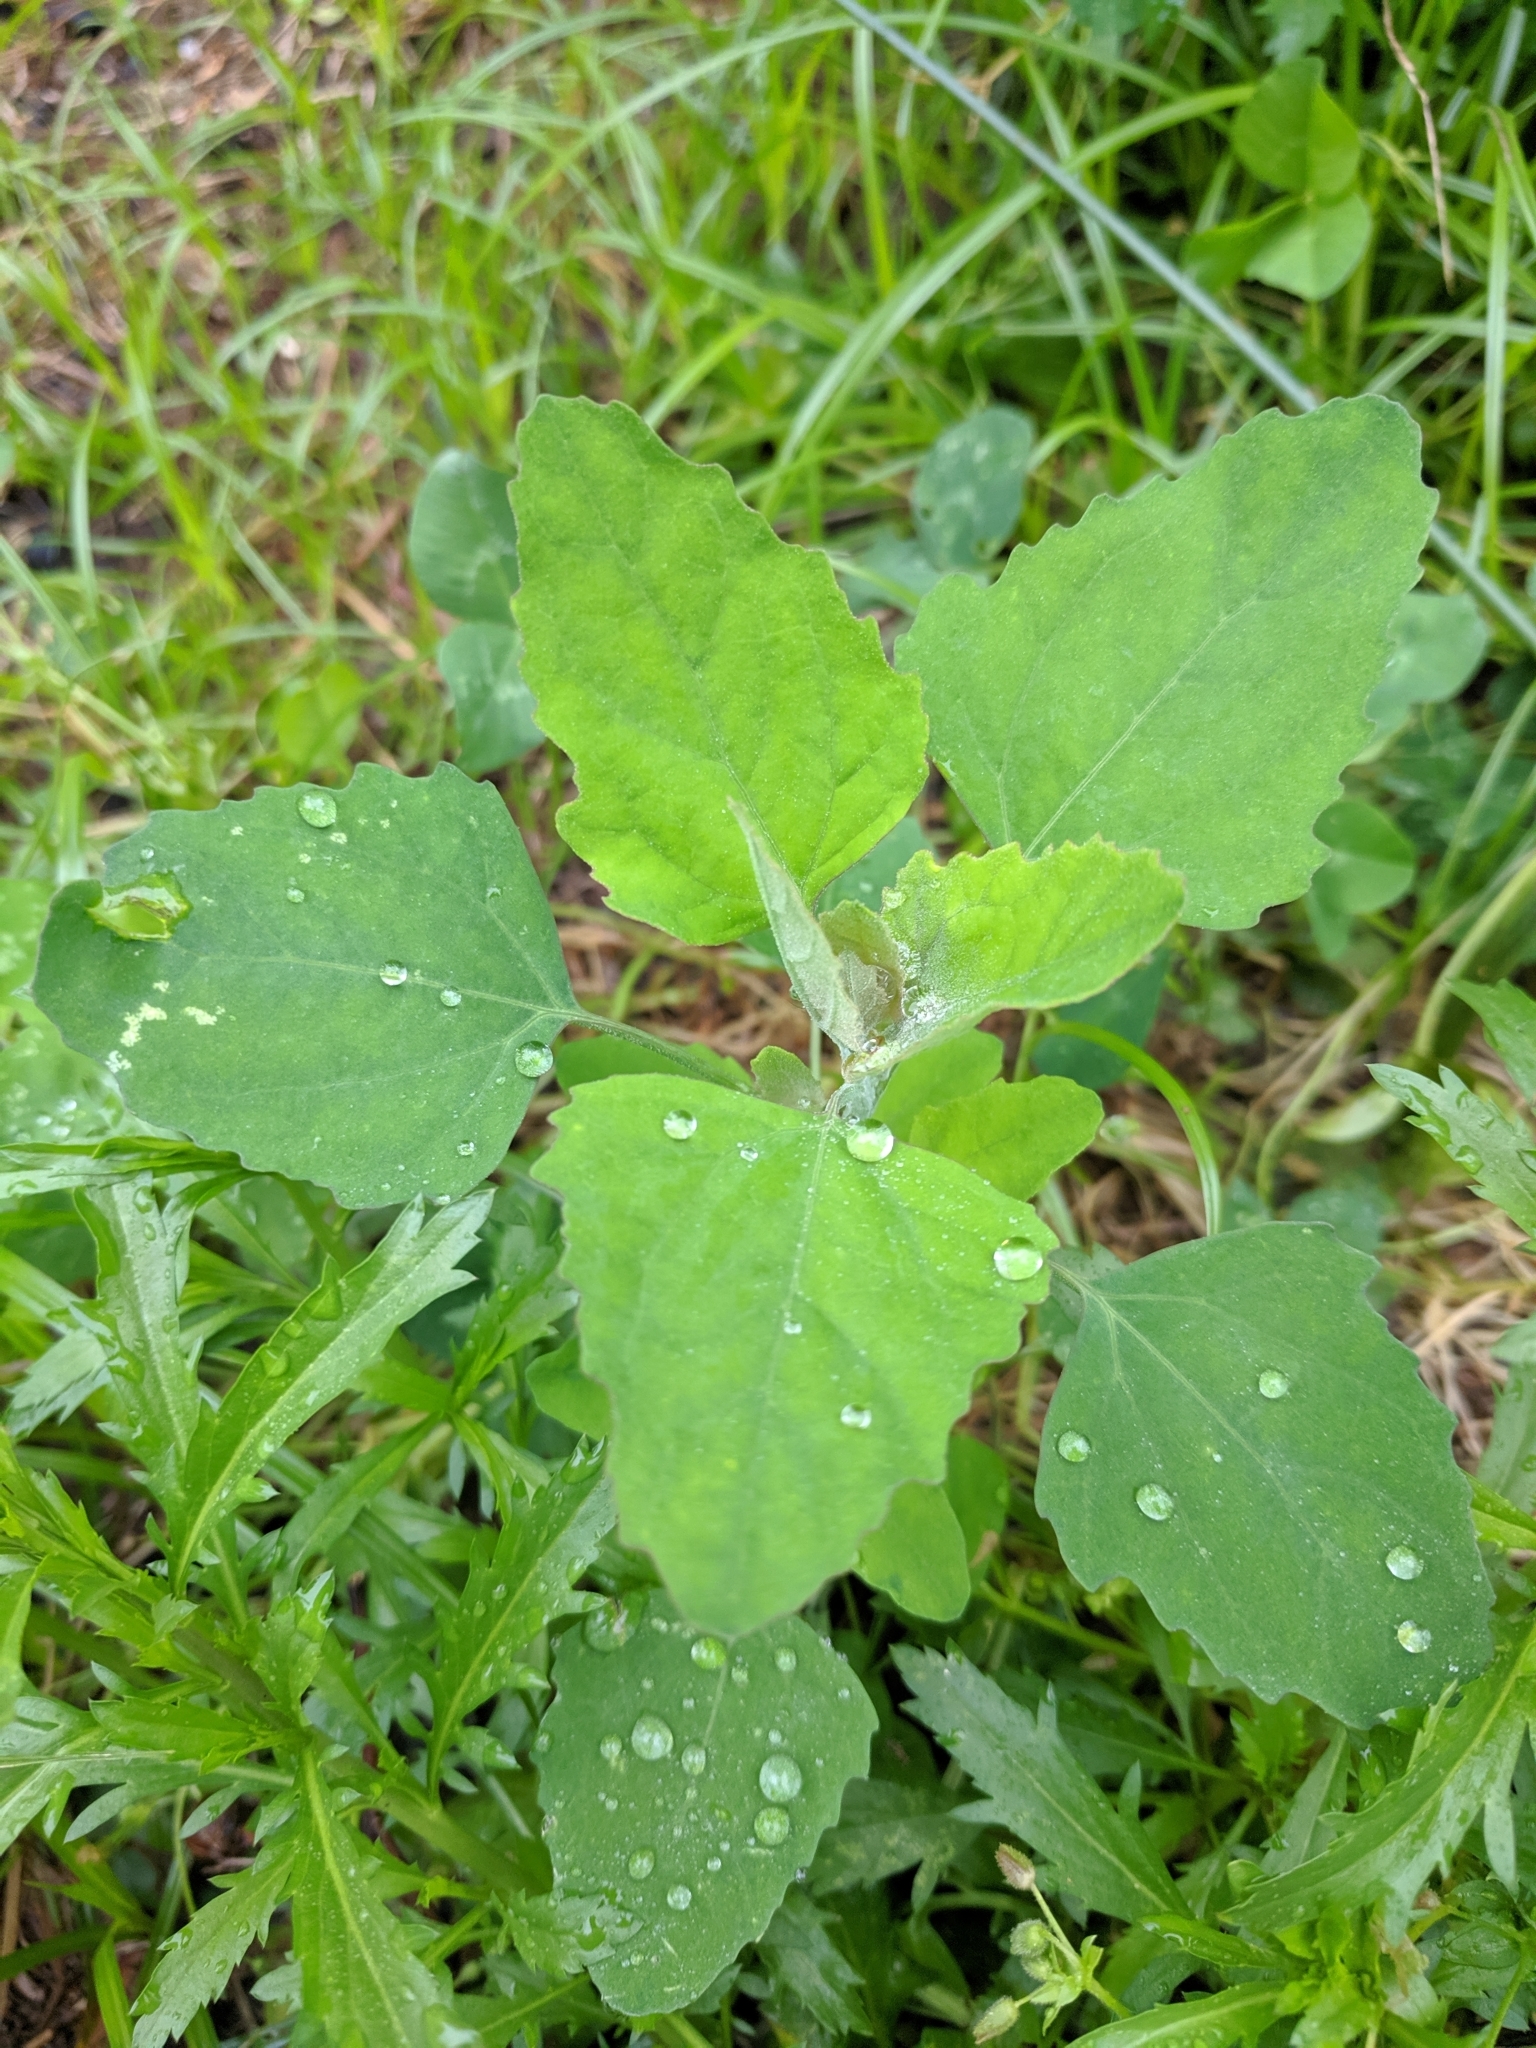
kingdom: Plantae
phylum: Tracheophyta
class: Magnoliopsida
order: Caryophyllales
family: Amaranthaceae
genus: Chenopodium
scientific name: Chenopodium album
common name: Fat-hen
